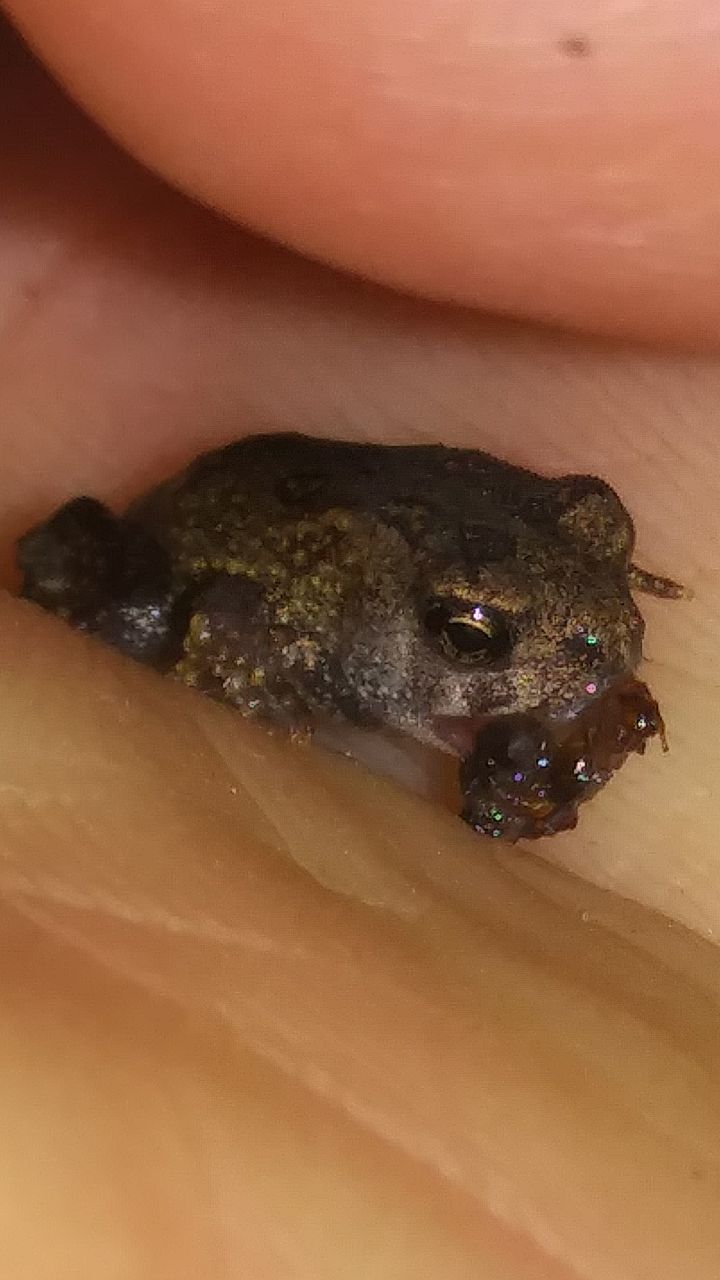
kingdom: Animalia
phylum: Chordata
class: Amphibia
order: Anura
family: Bufonidae
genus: Anaxyrus
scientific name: Anaxyrus americanus
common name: American toad
